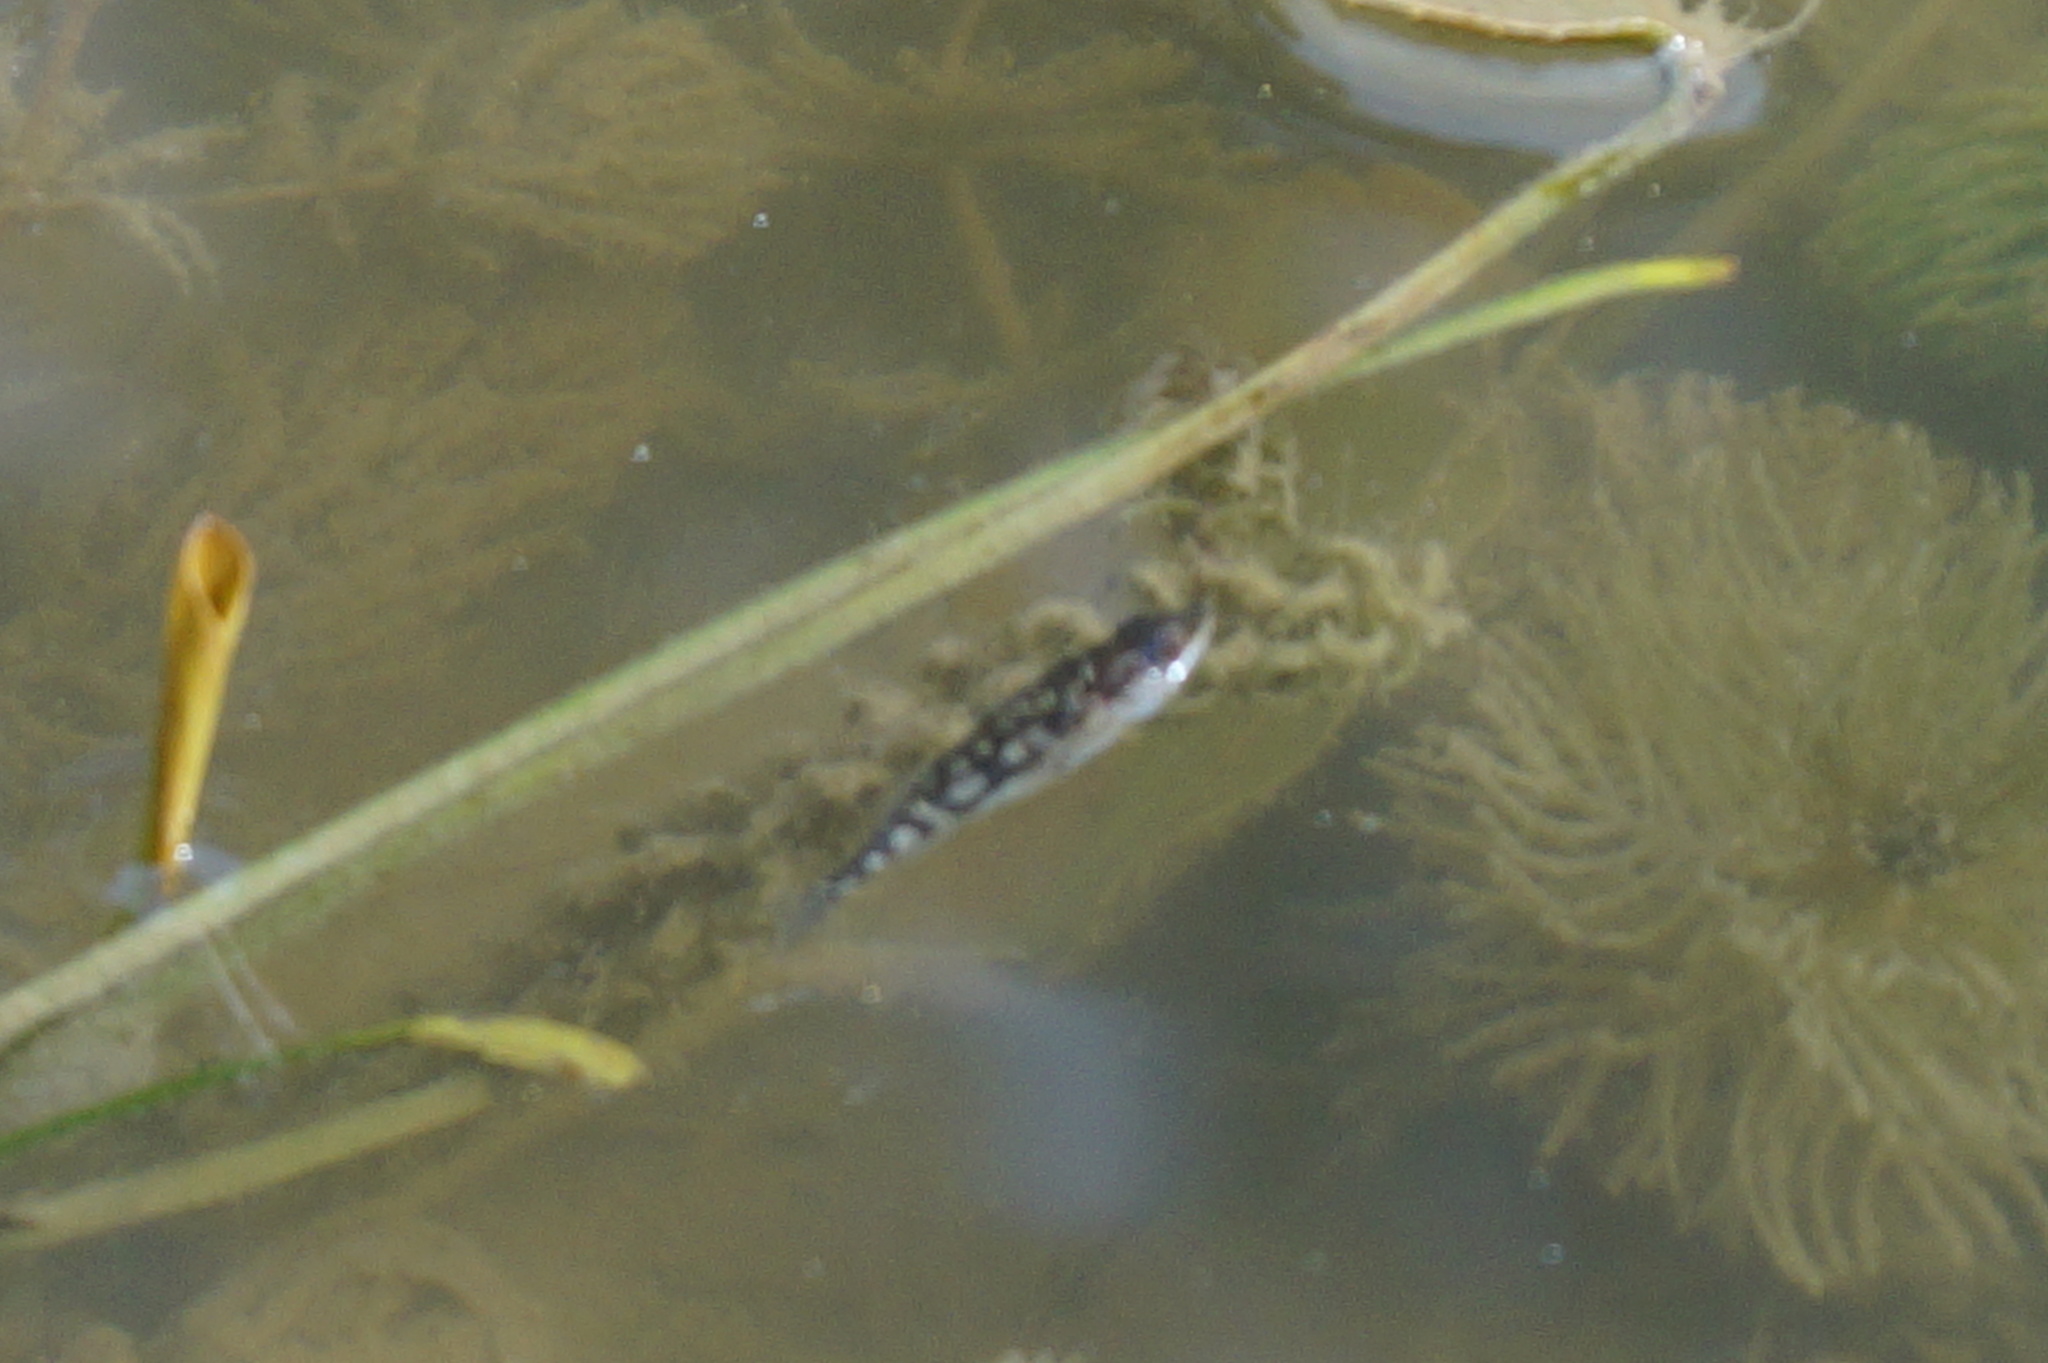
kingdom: Animalia
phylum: Chordata
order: Gasterosteiformes
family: Gasterosteidae
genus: Gasterosteus
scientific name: Gasterosteus aculeatus
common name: Three-spined stickleback
